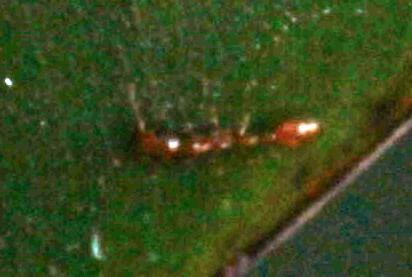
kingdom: Animalia
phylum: Arthropoda
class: Insecta
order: Hymenoptera
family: Formicidae
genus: Tetraponera
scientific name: Tetraponera emeryi
